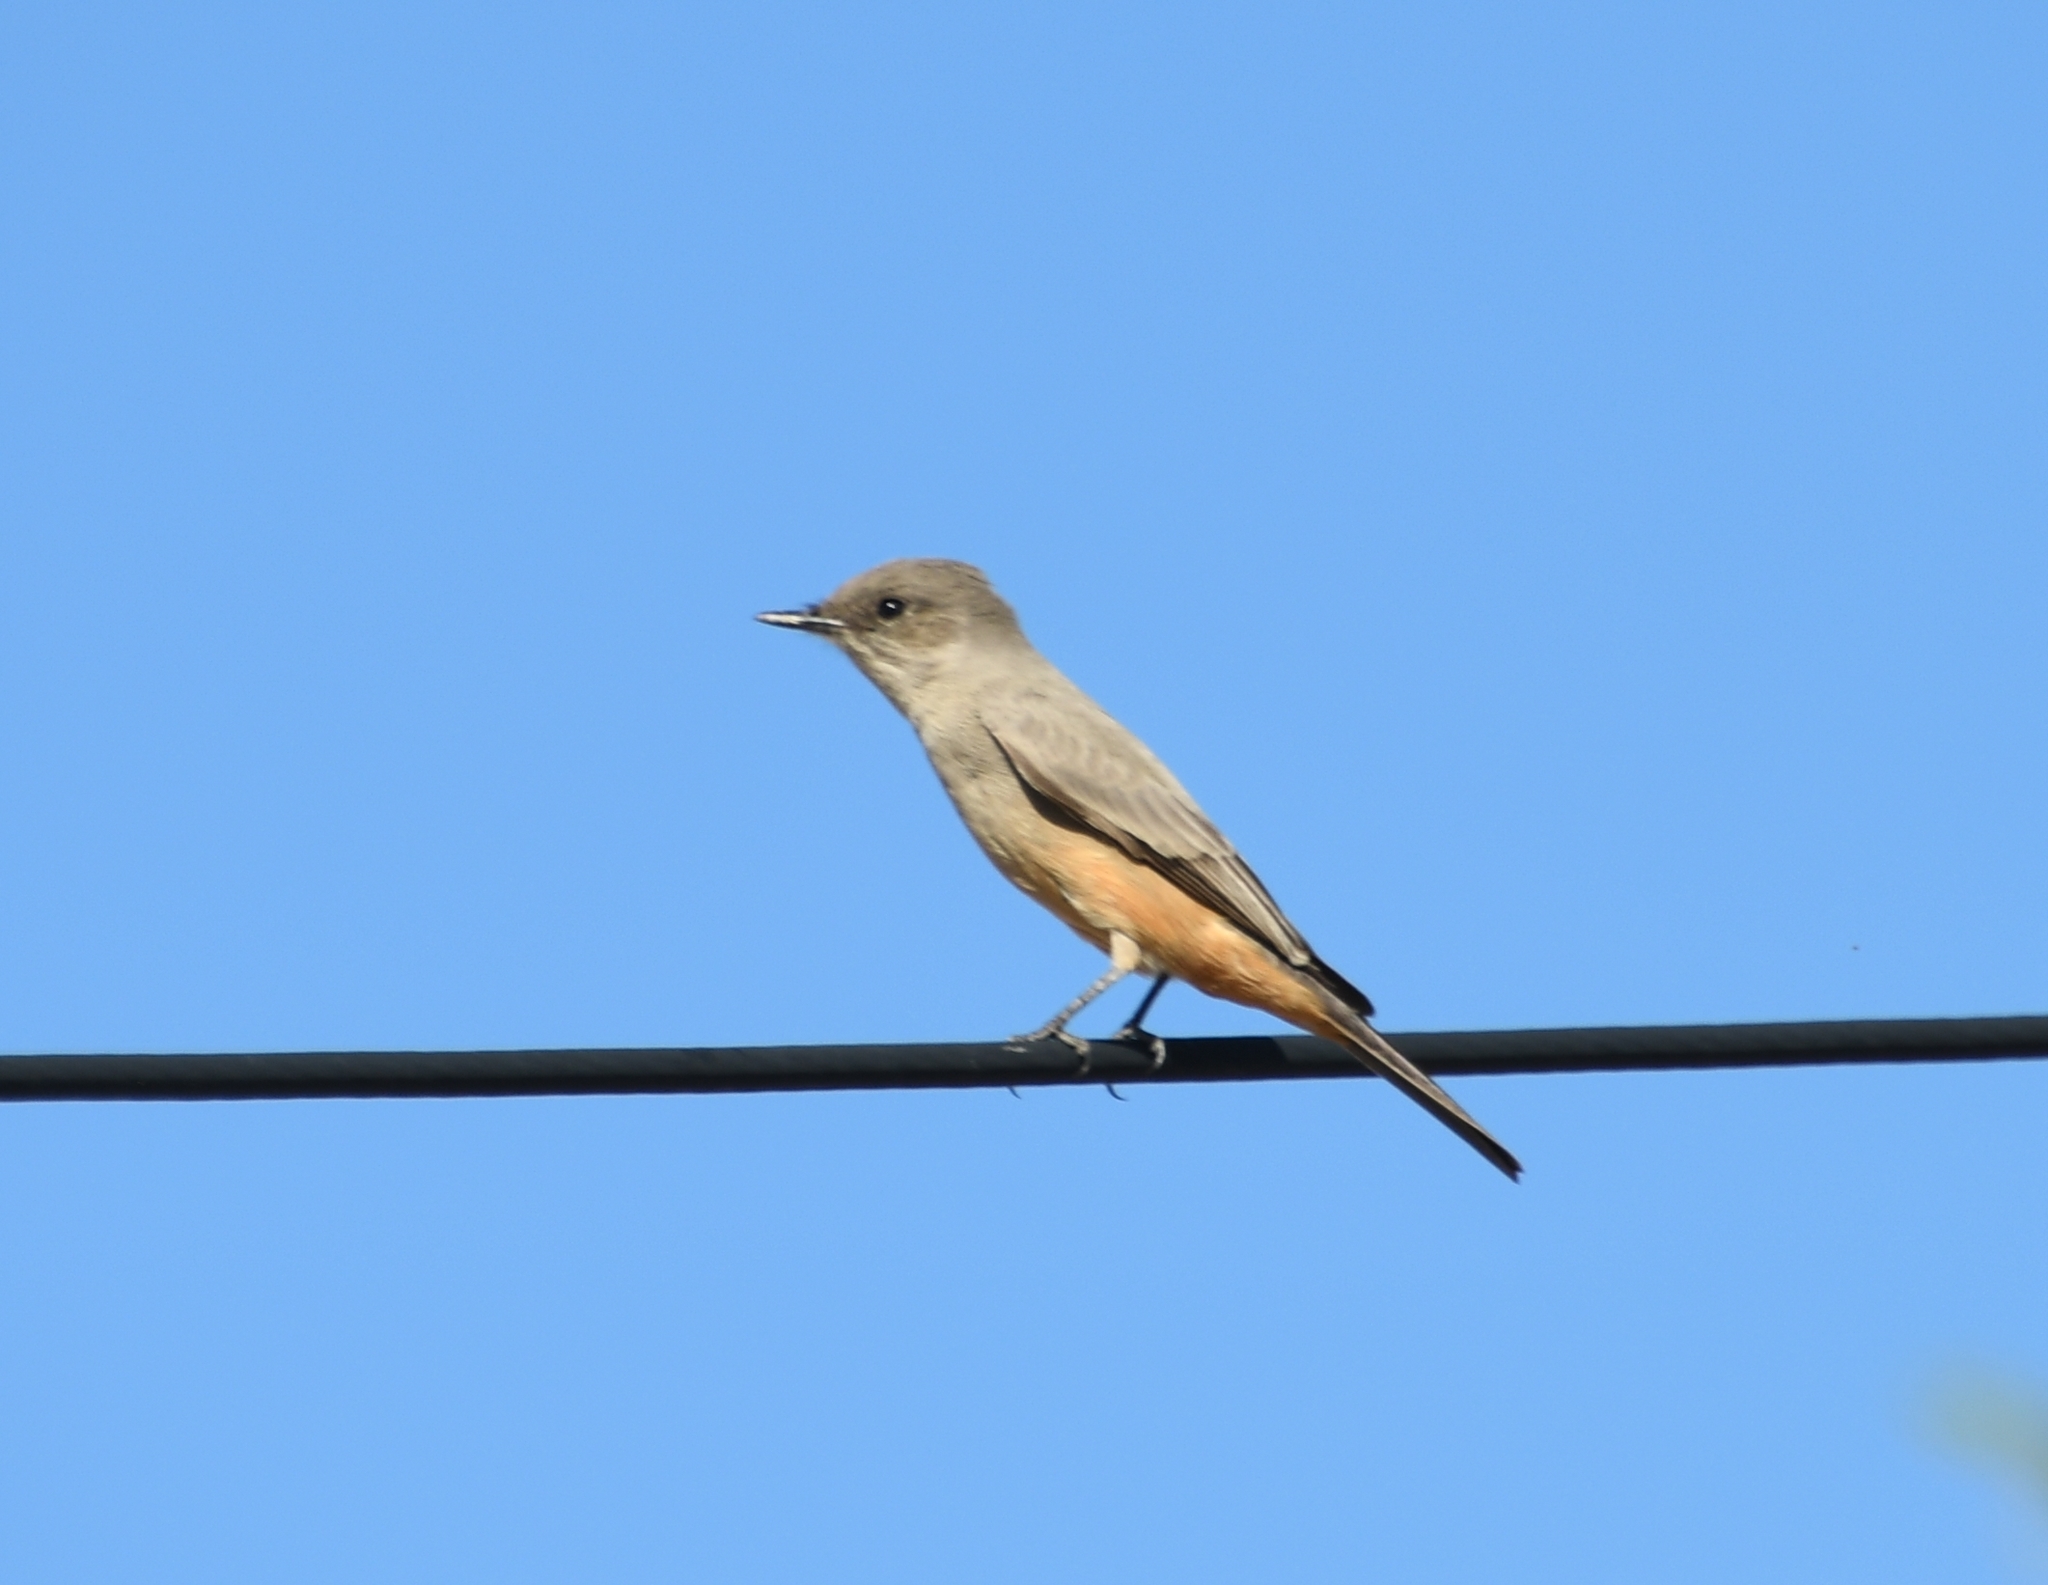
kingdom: Animalia
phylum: Chordata
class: Aves
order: Passeriformes
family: Tyrannidae
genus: Sayornis
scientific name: Sayornis saya
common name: Say's phoebe
